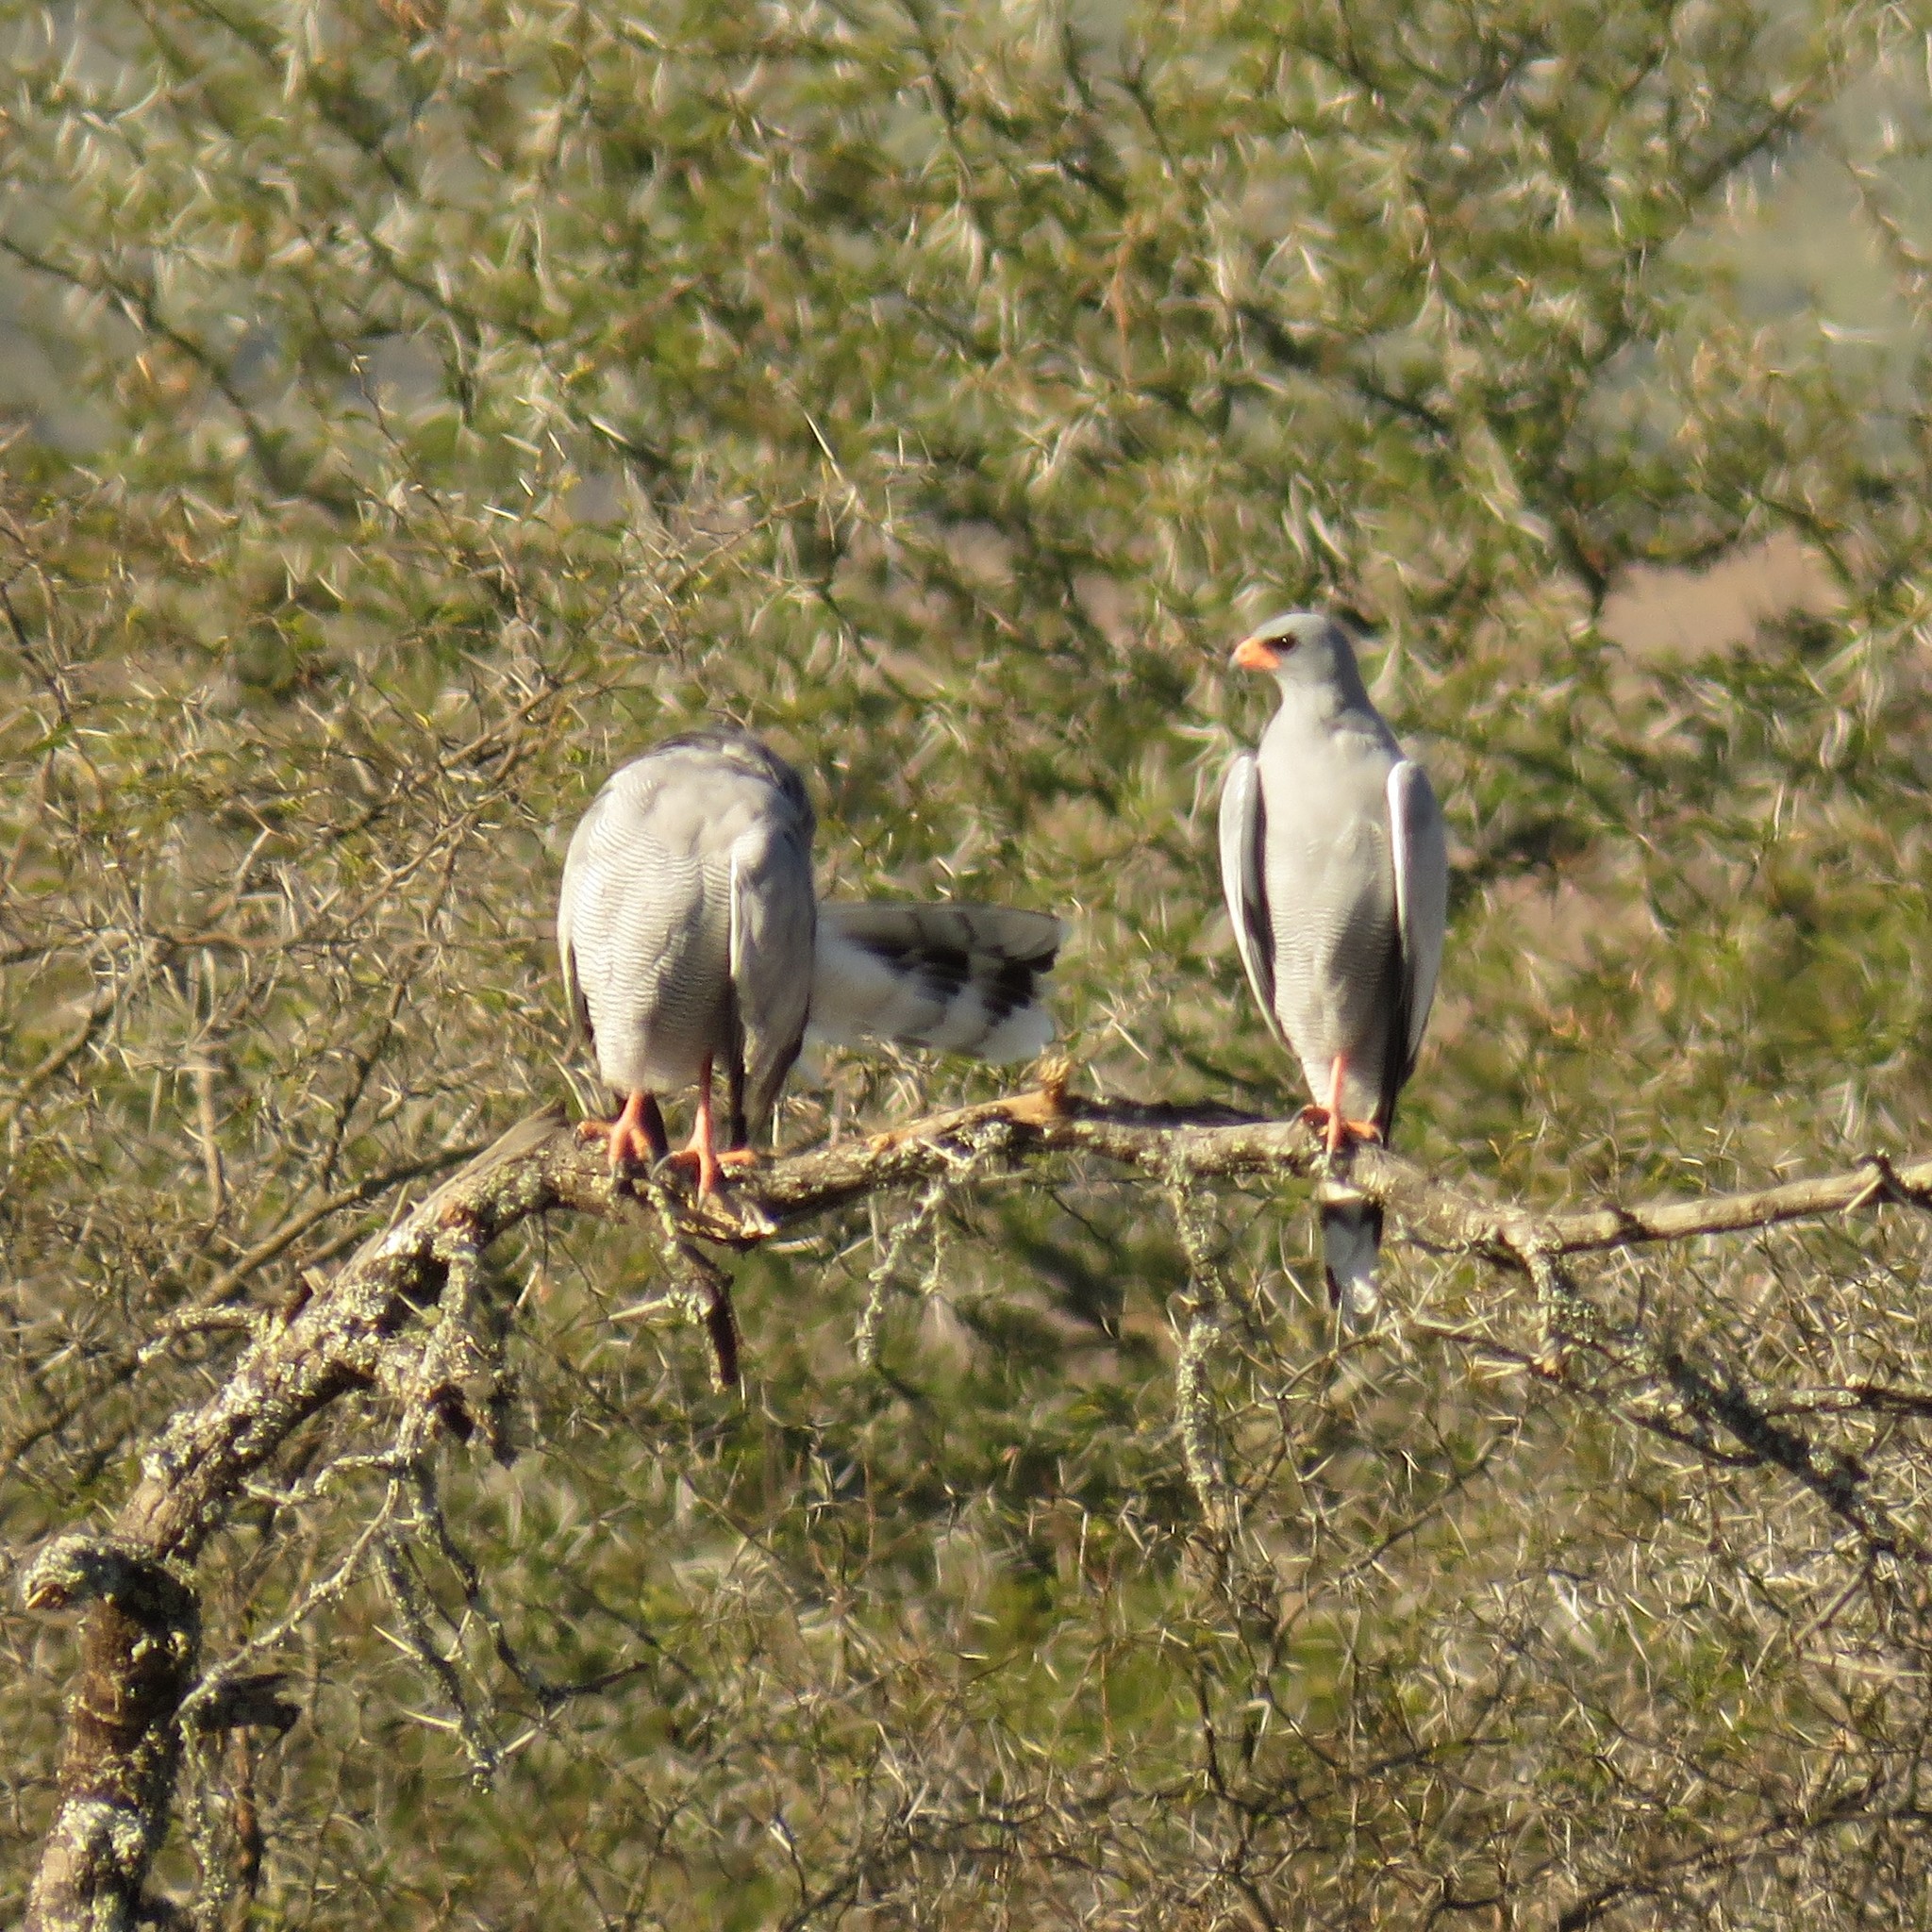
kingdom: Animalia
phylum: Chordata
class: Aves
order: Accipitriformes
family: Accipitridae
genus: Melierax
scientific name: Melierax canorus
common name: Pale chanting-goshawk
